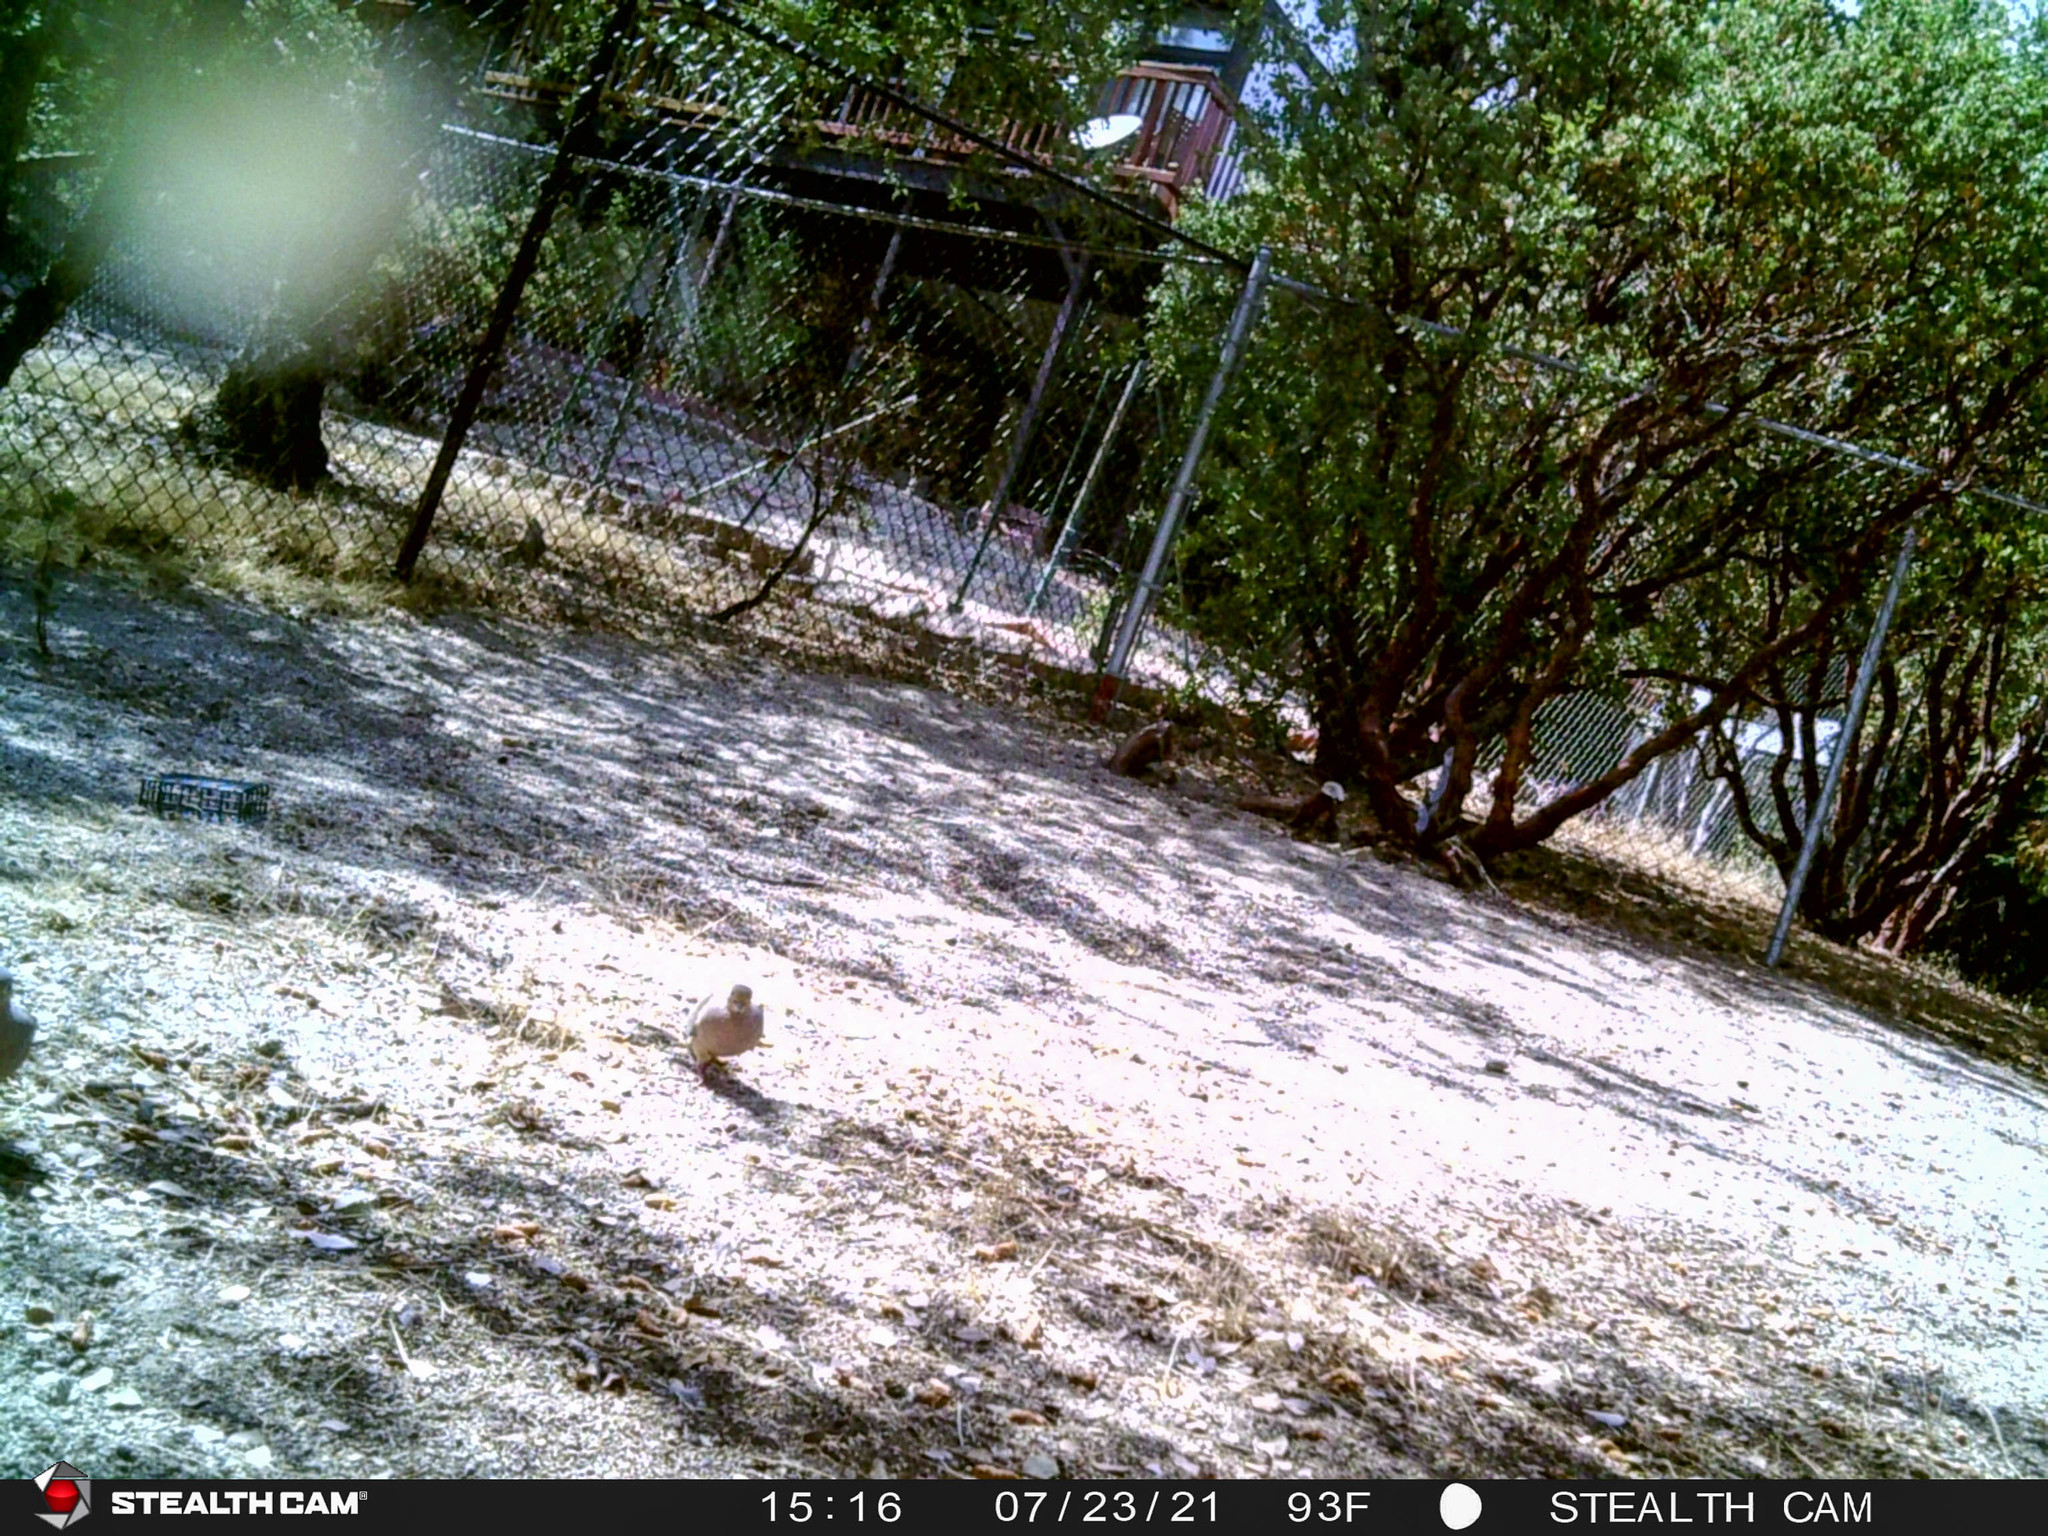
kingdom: Animalia
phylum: Chordata
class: Aves
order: Columbiformes
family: Columbidae
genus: Zenaida
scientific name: Zenaida macroura
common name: Mourning dove
